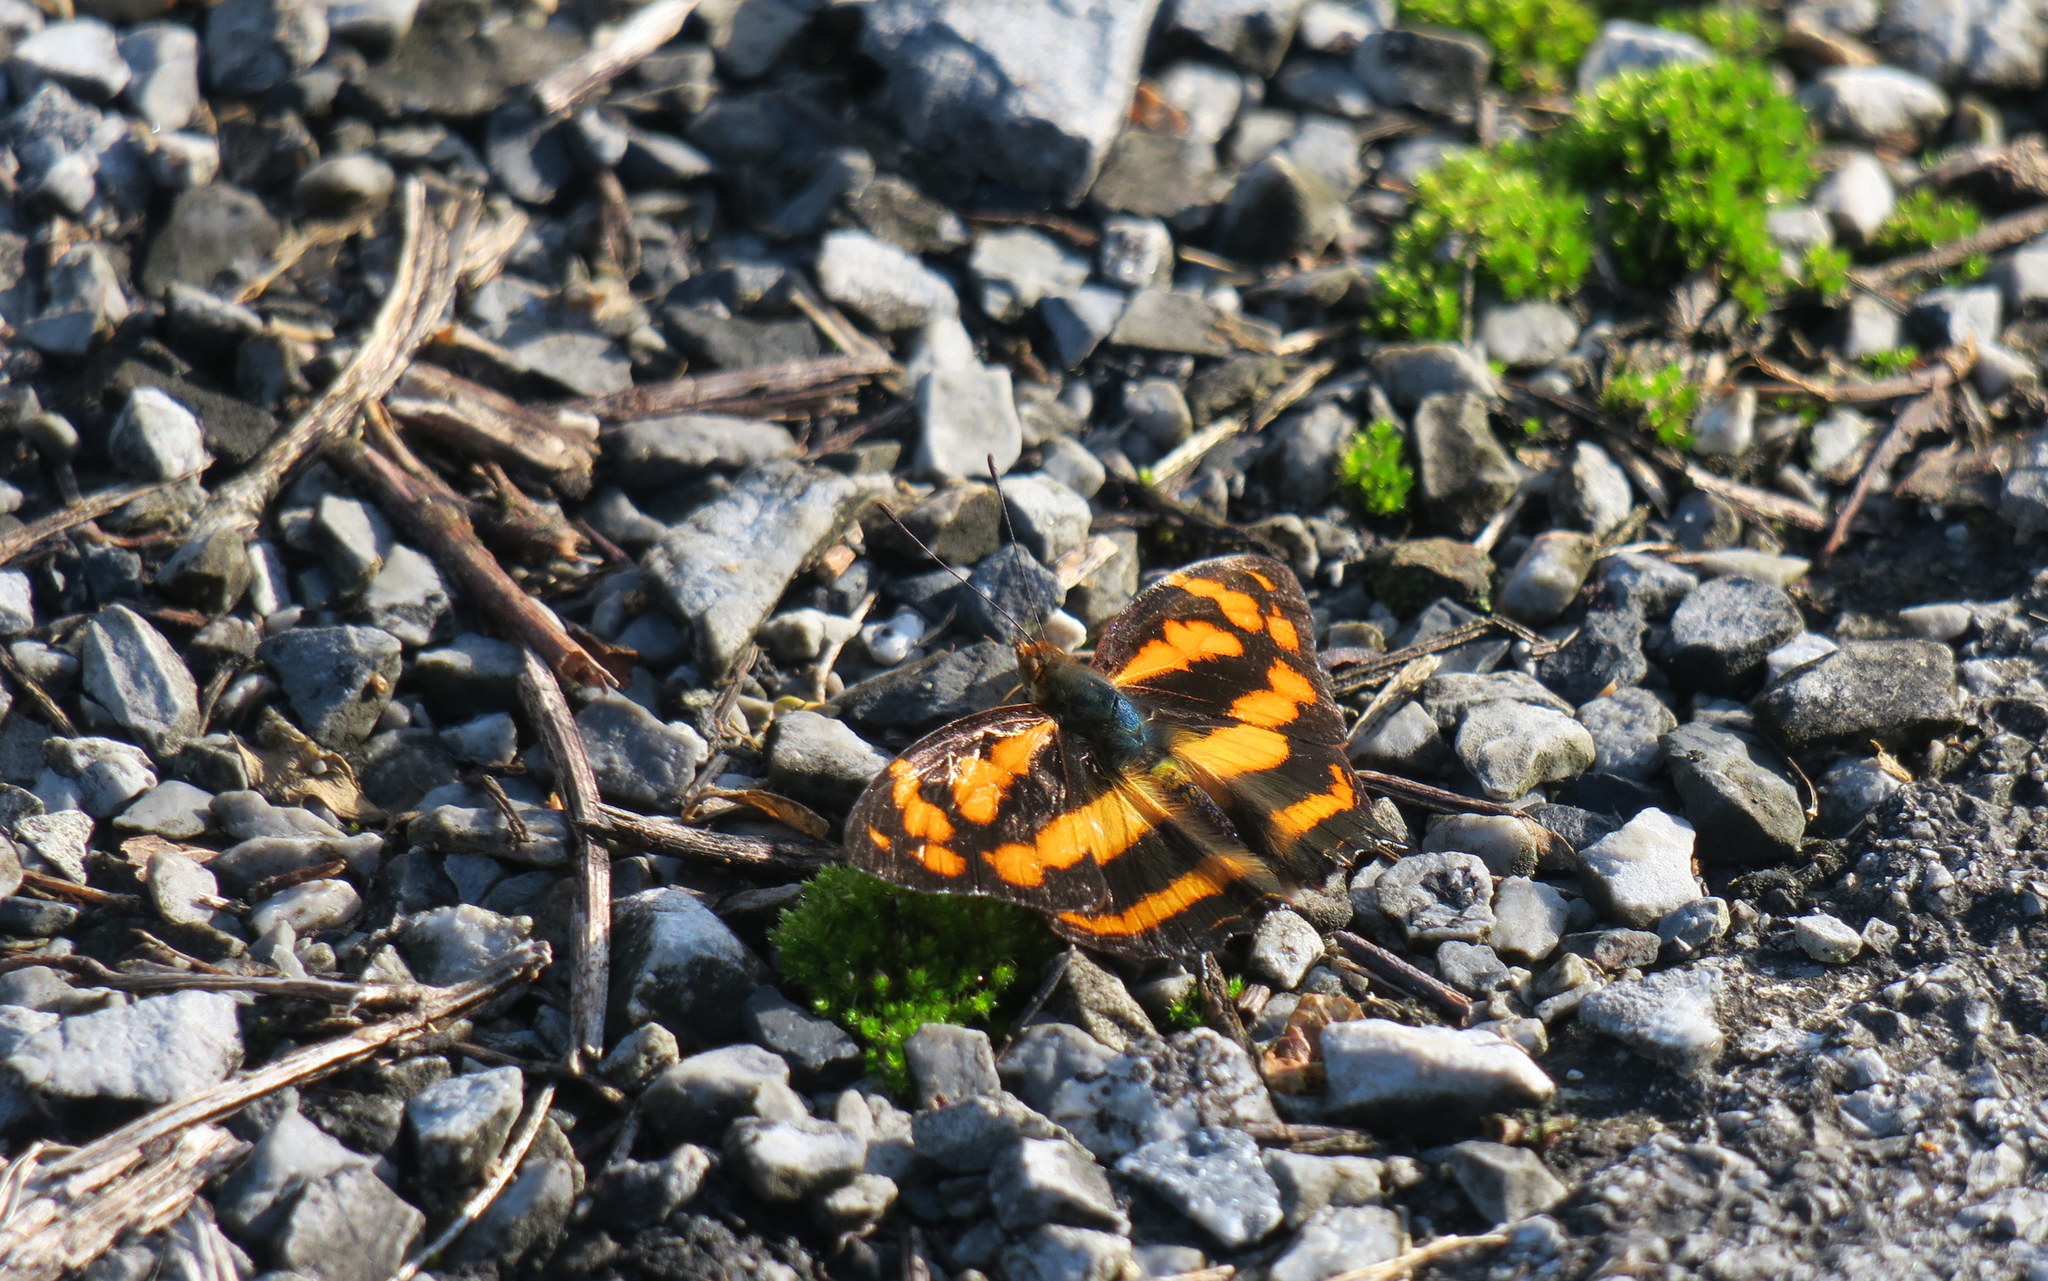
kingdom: Animalia
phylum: Arthropoda
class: Insecta
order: Lepidoptera
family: Nymphalidae
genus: Symbrenthia
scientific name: Symbrenthia hypselis
